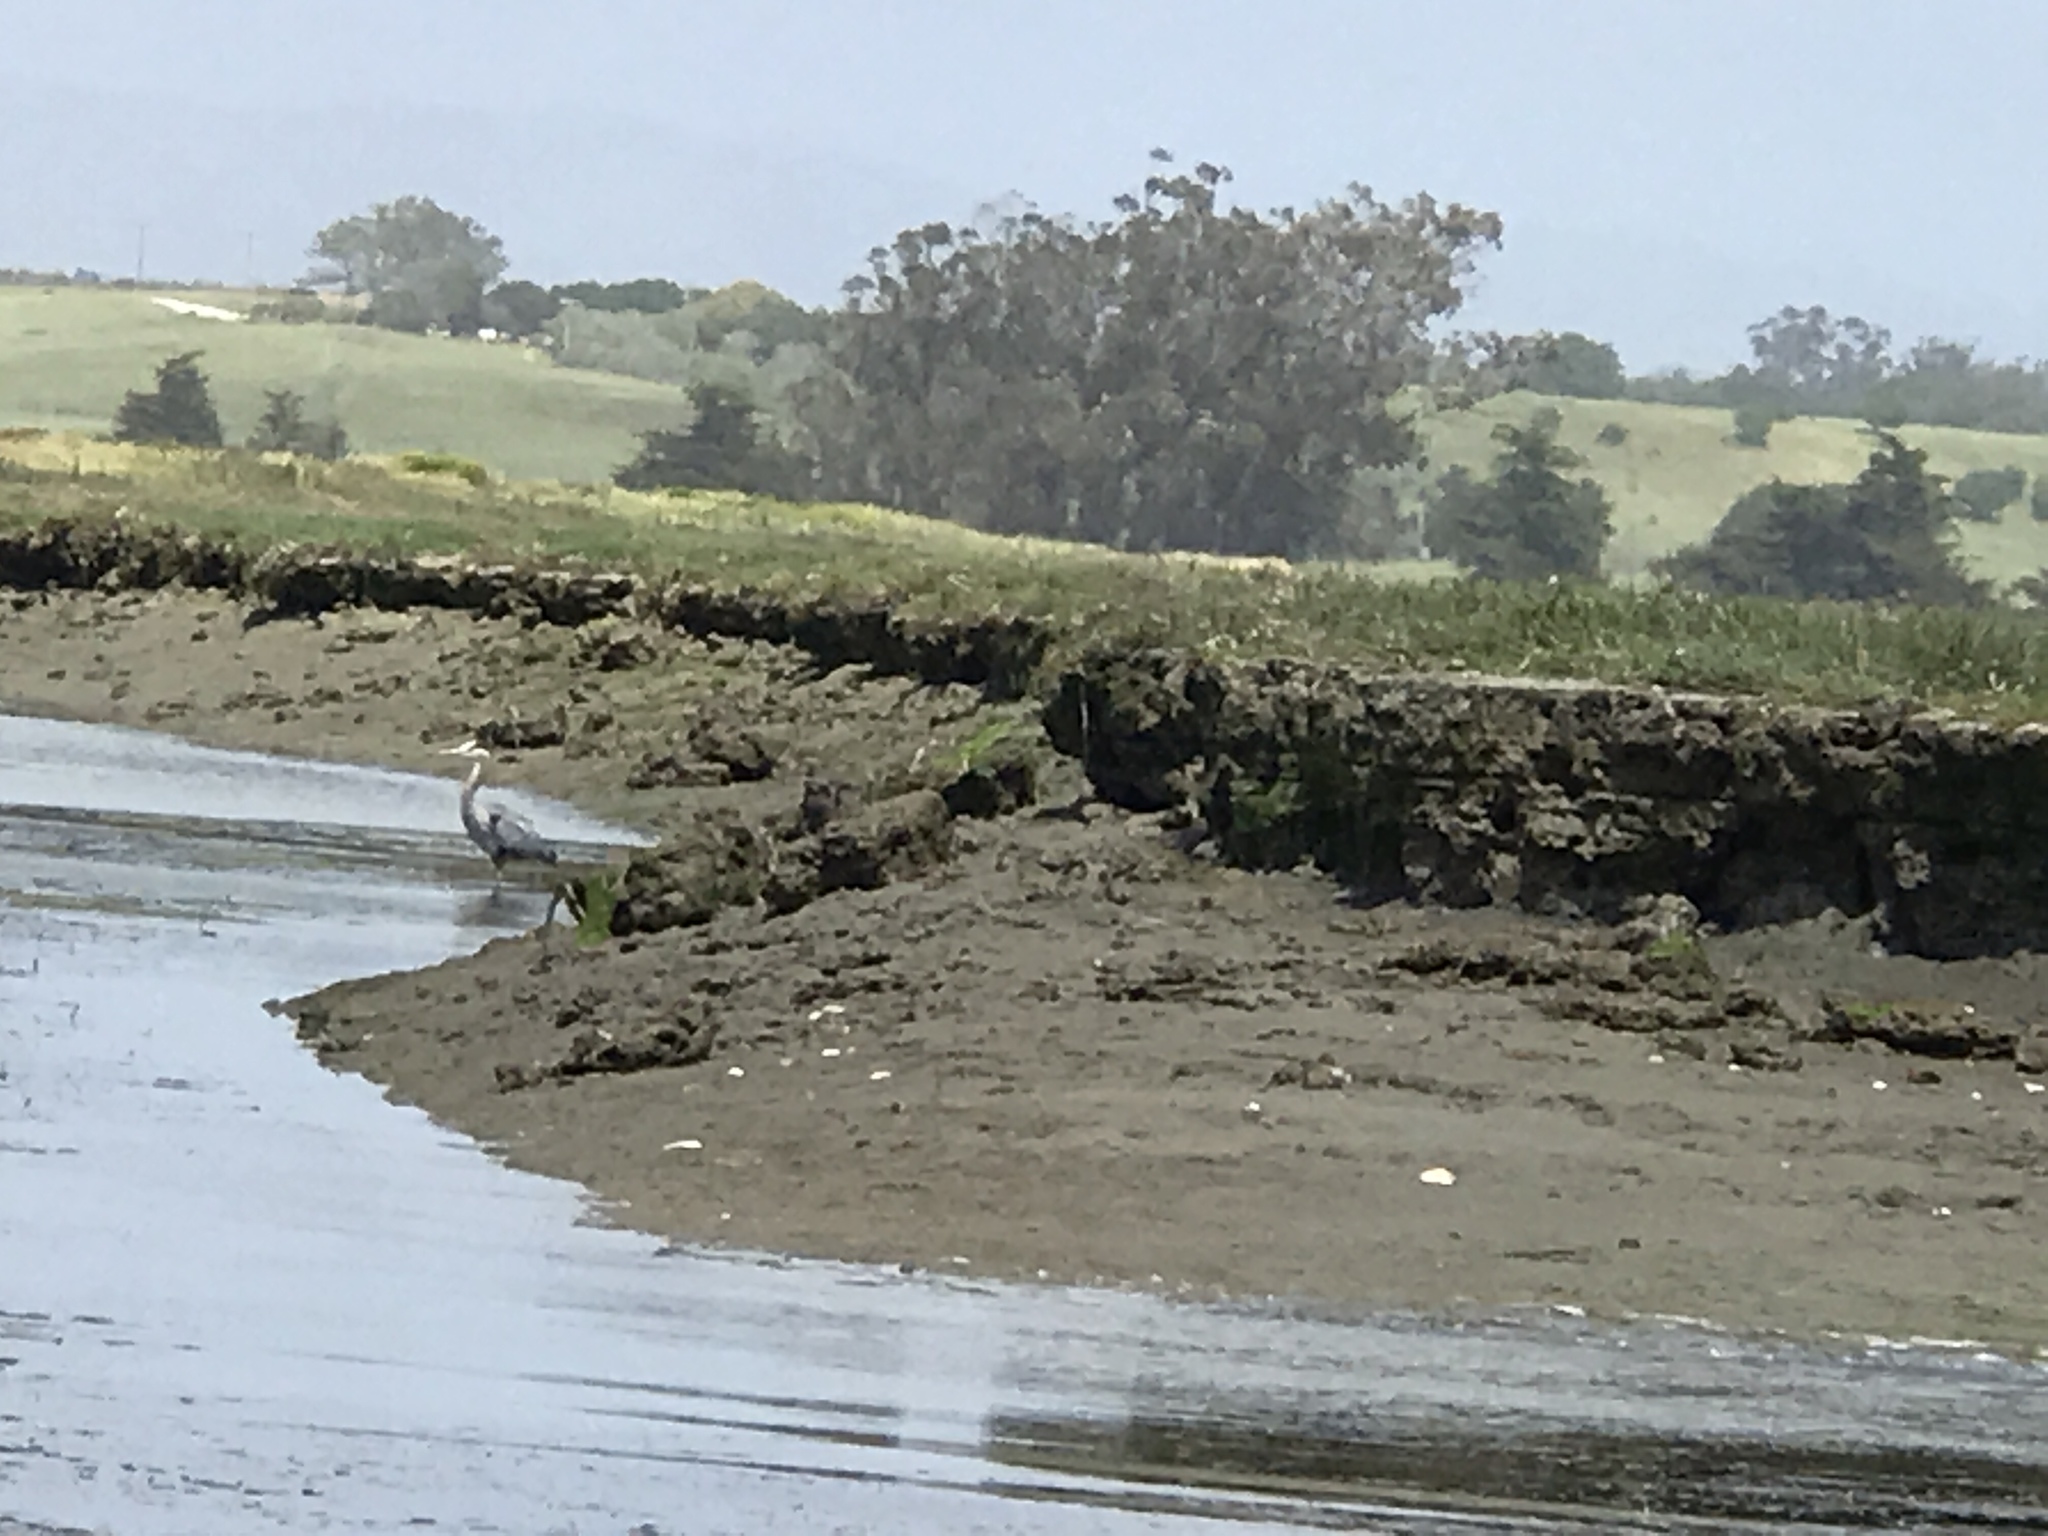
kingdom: Animalia
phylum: Chordata
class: Aves
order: Pelecaniformes
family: Ardeidae
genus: Ardea
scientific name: Ardea herodias
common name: Great blue heron
